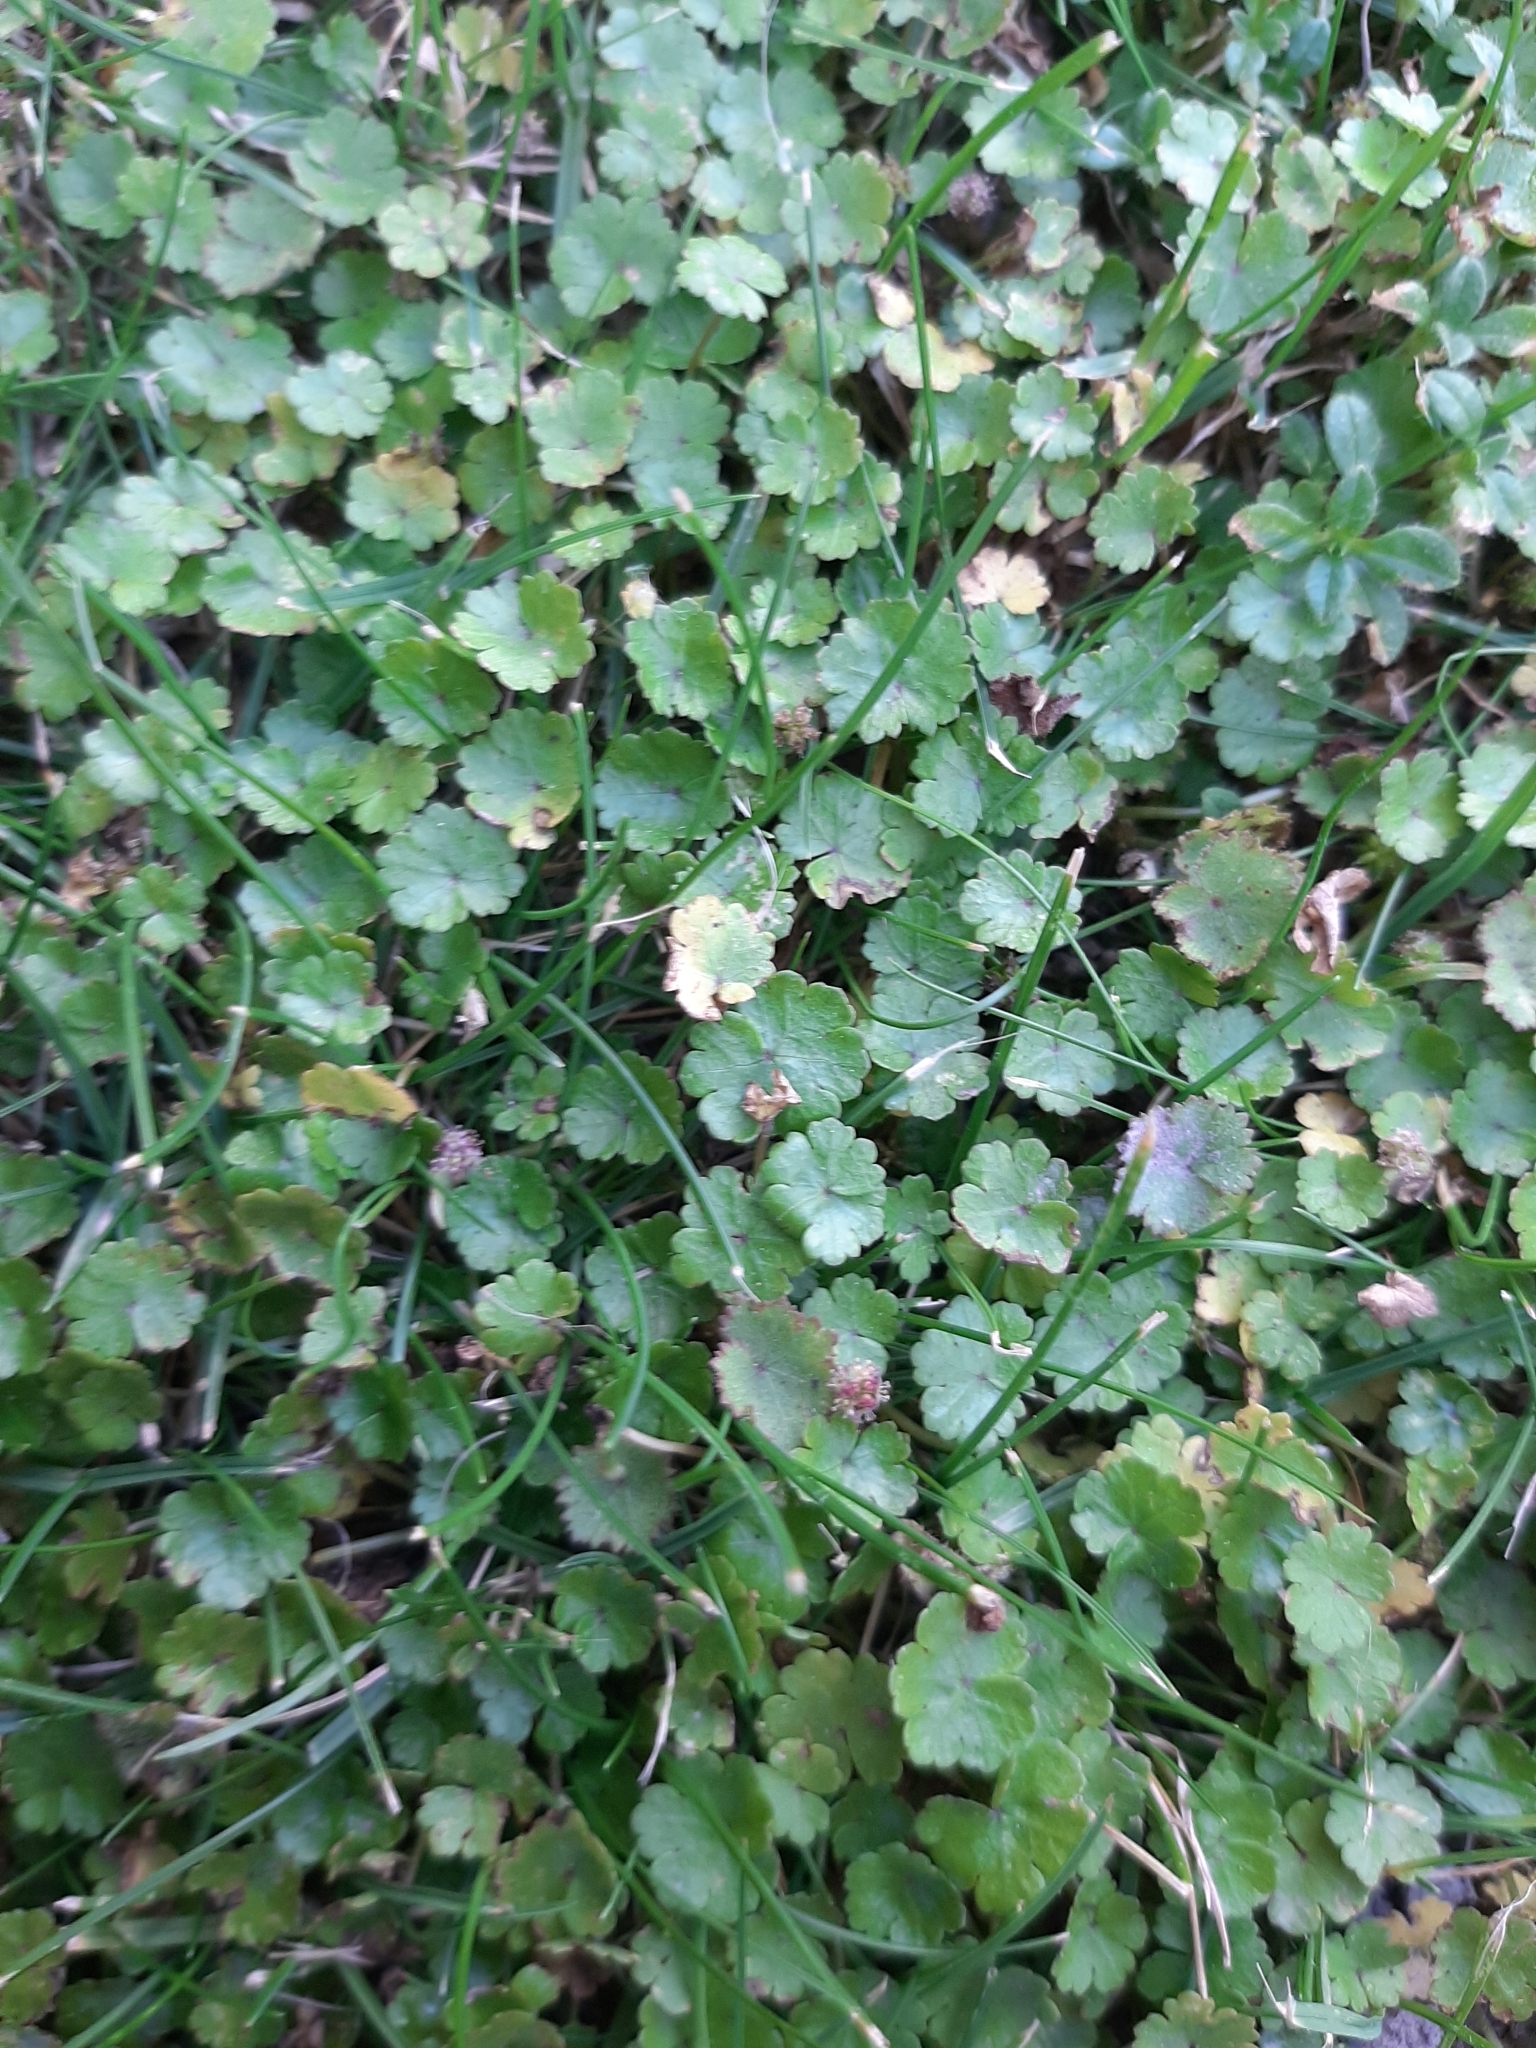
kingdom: Plantae
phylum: Tracheophyta
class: Magnoliopsida
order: Apiales
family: Araliaceae
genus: Hydrocotyle
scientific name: Hydrocotyle microphylla
